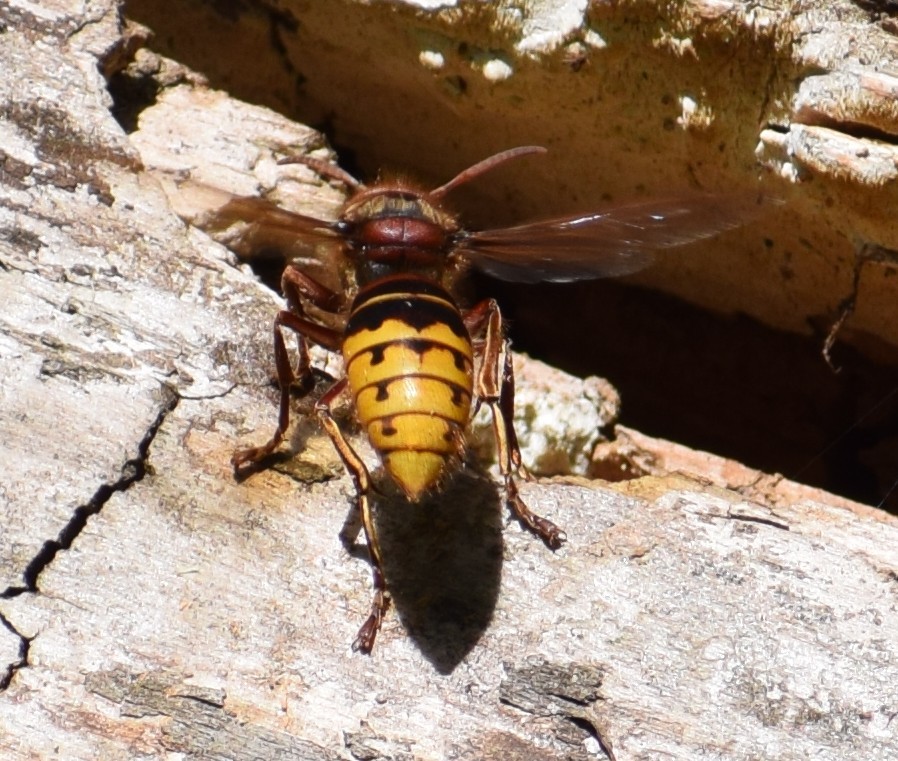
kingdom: Animalia
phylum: Arthropoda
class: Insecta
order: Hymenoptera
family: Vespidae
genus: Vespa
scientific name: Vespa crabro
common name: Hornet
